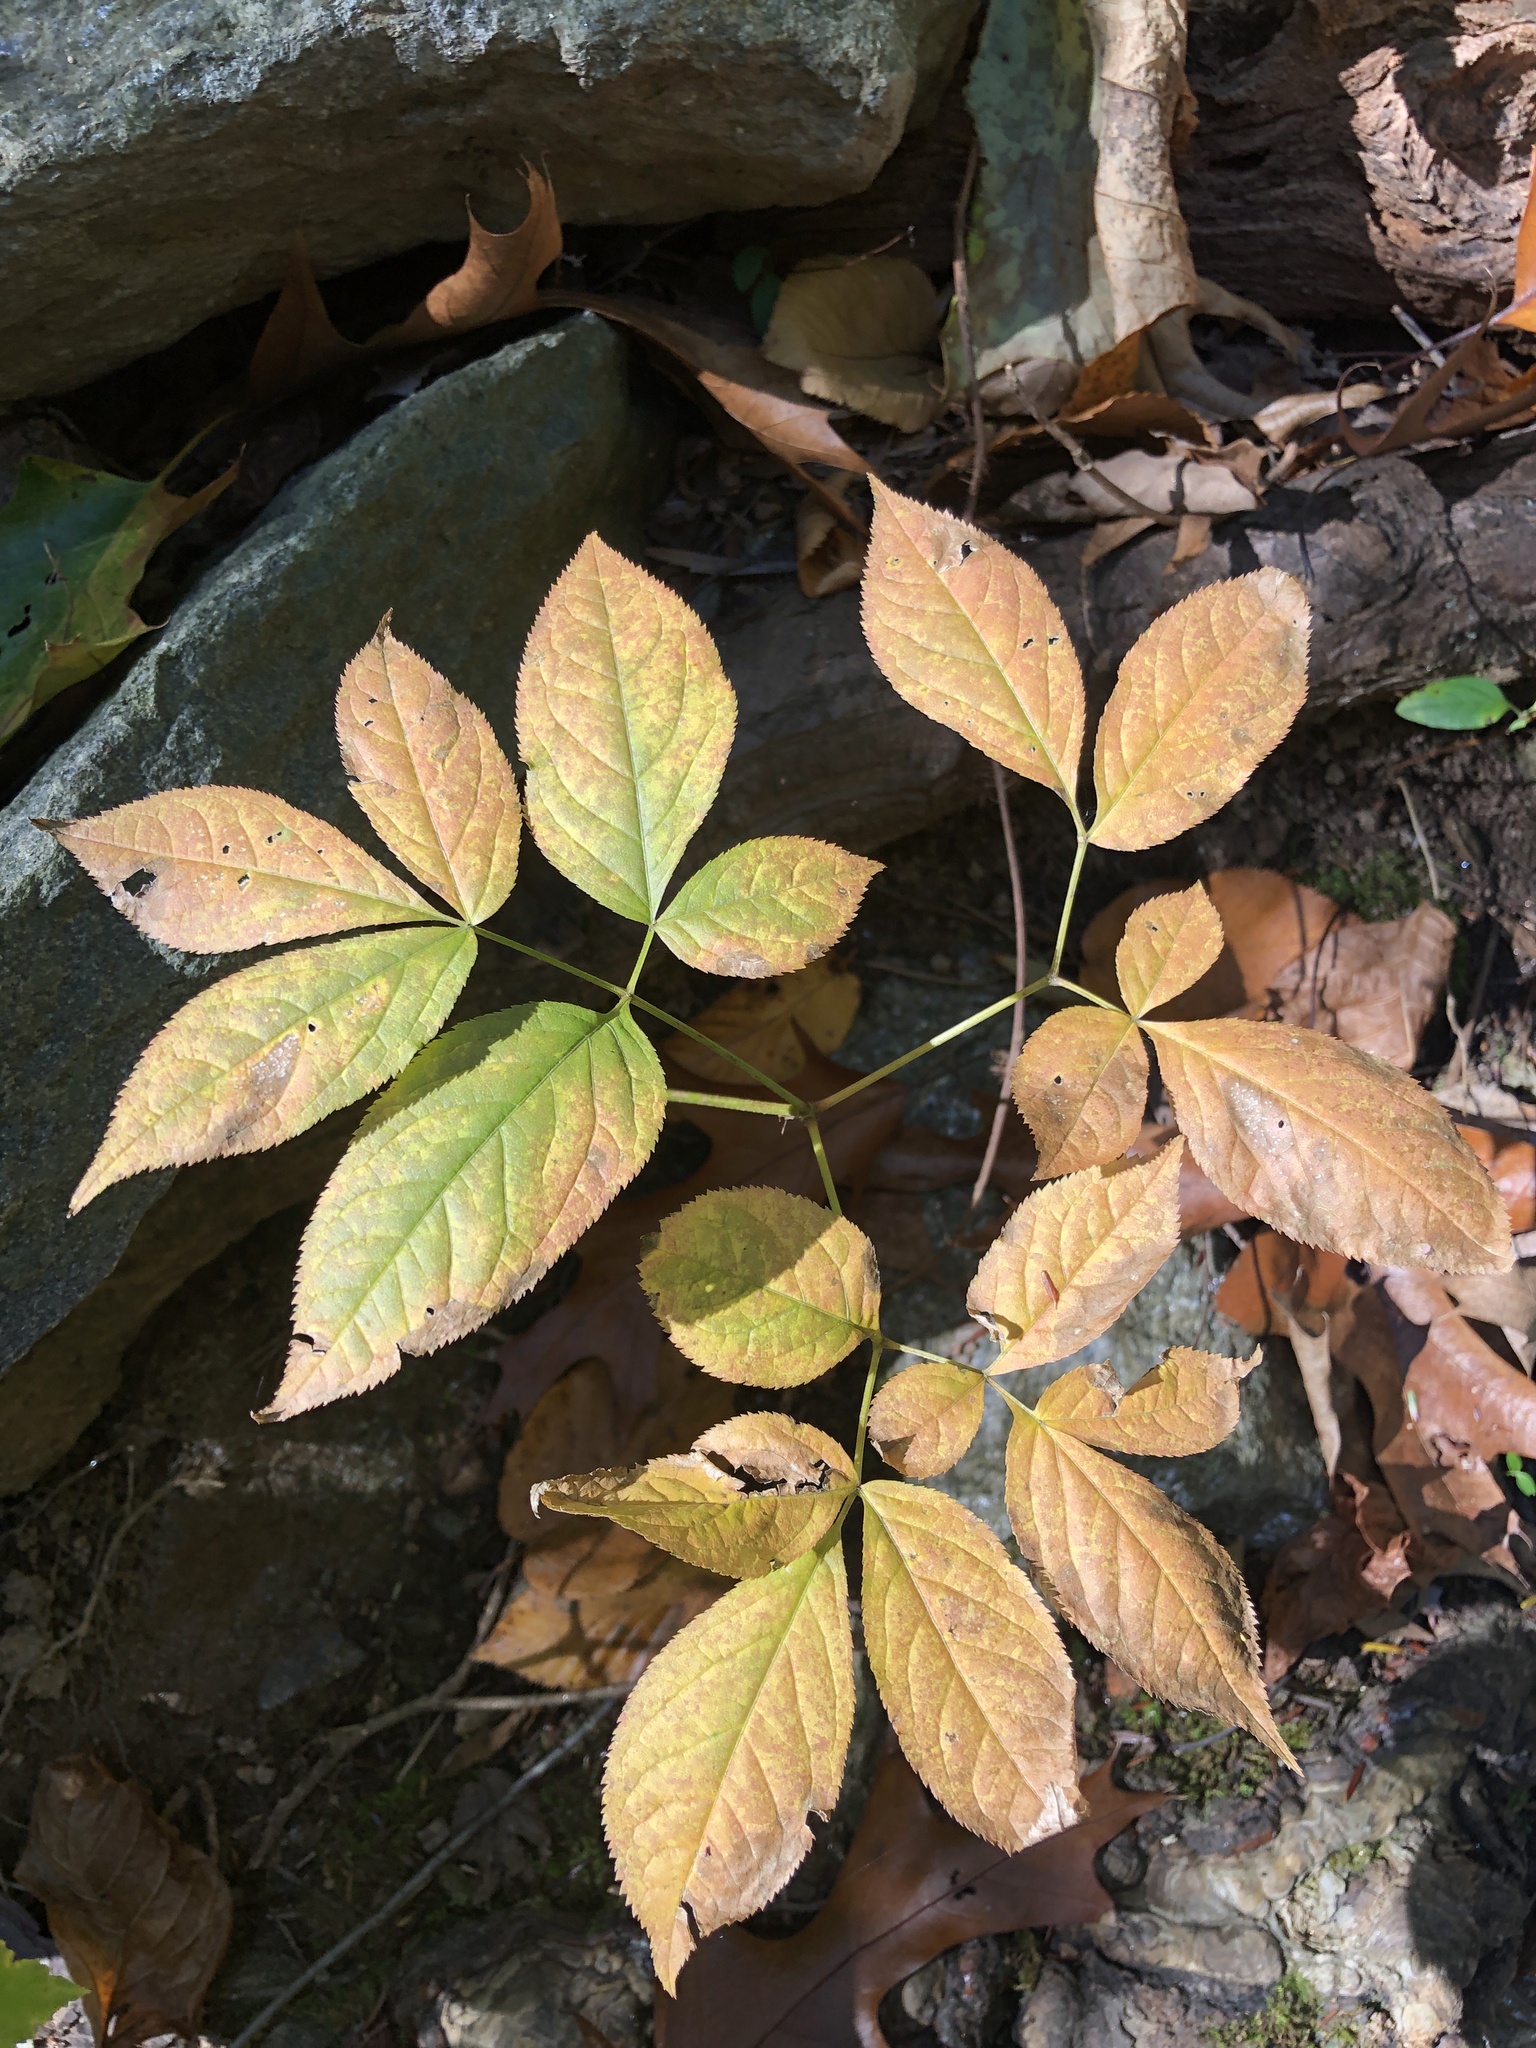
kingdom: Plantae
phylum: Tracheophyta
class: Magnoliopsida
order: Apiales
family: Araliaceae
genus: Aralia
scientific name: Aralia nudicaulis
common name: Wild sarsaparilla
